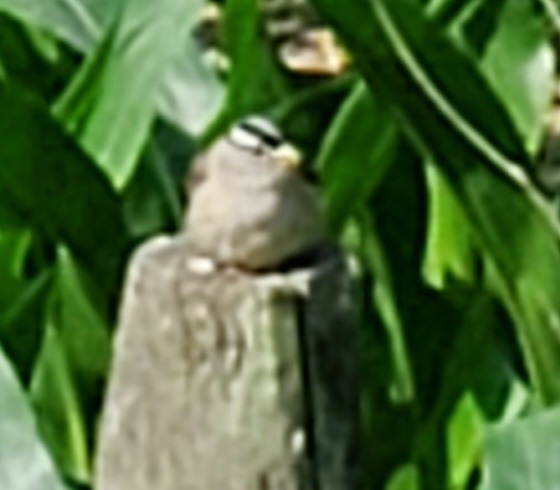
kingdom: Animalia
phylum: Chordata
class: Aves
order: Passeriformes
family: Passerellidae
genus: Zonotrichia
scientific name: Zonotrichia leucophrys
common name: White-crowned sparrow
